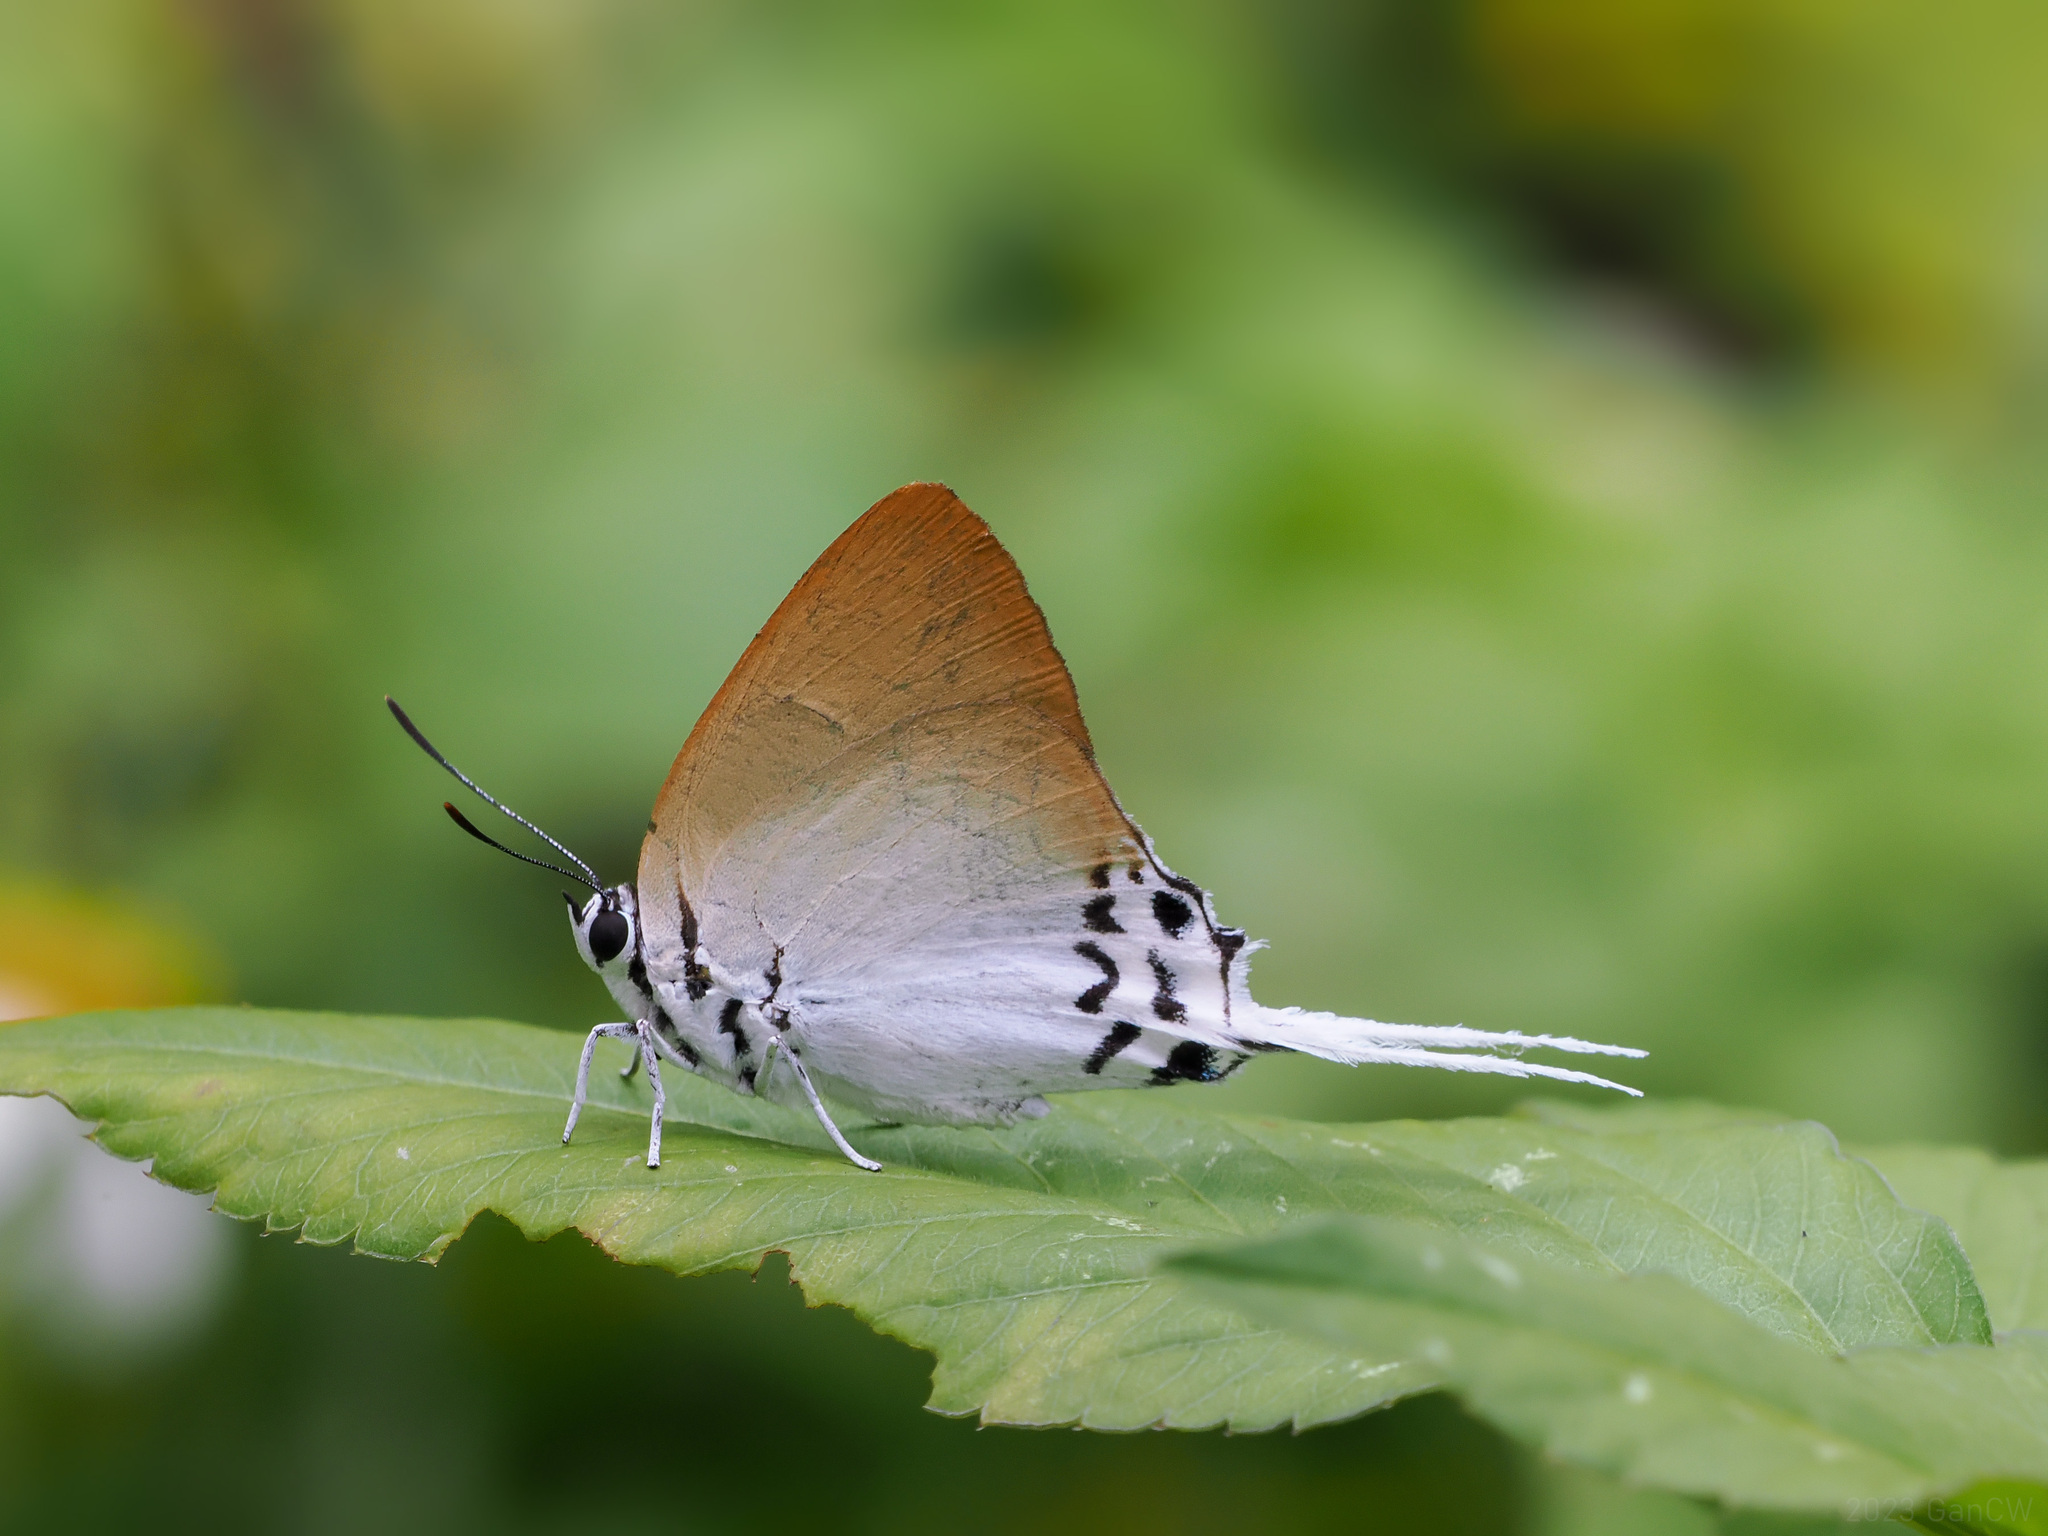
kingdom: Animalia
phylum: Arthropoda
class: Insecta
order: Lepidoptera
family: Lycaenidae
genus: Jacoona
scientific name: Jacoona anasuja
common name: Great imperial
